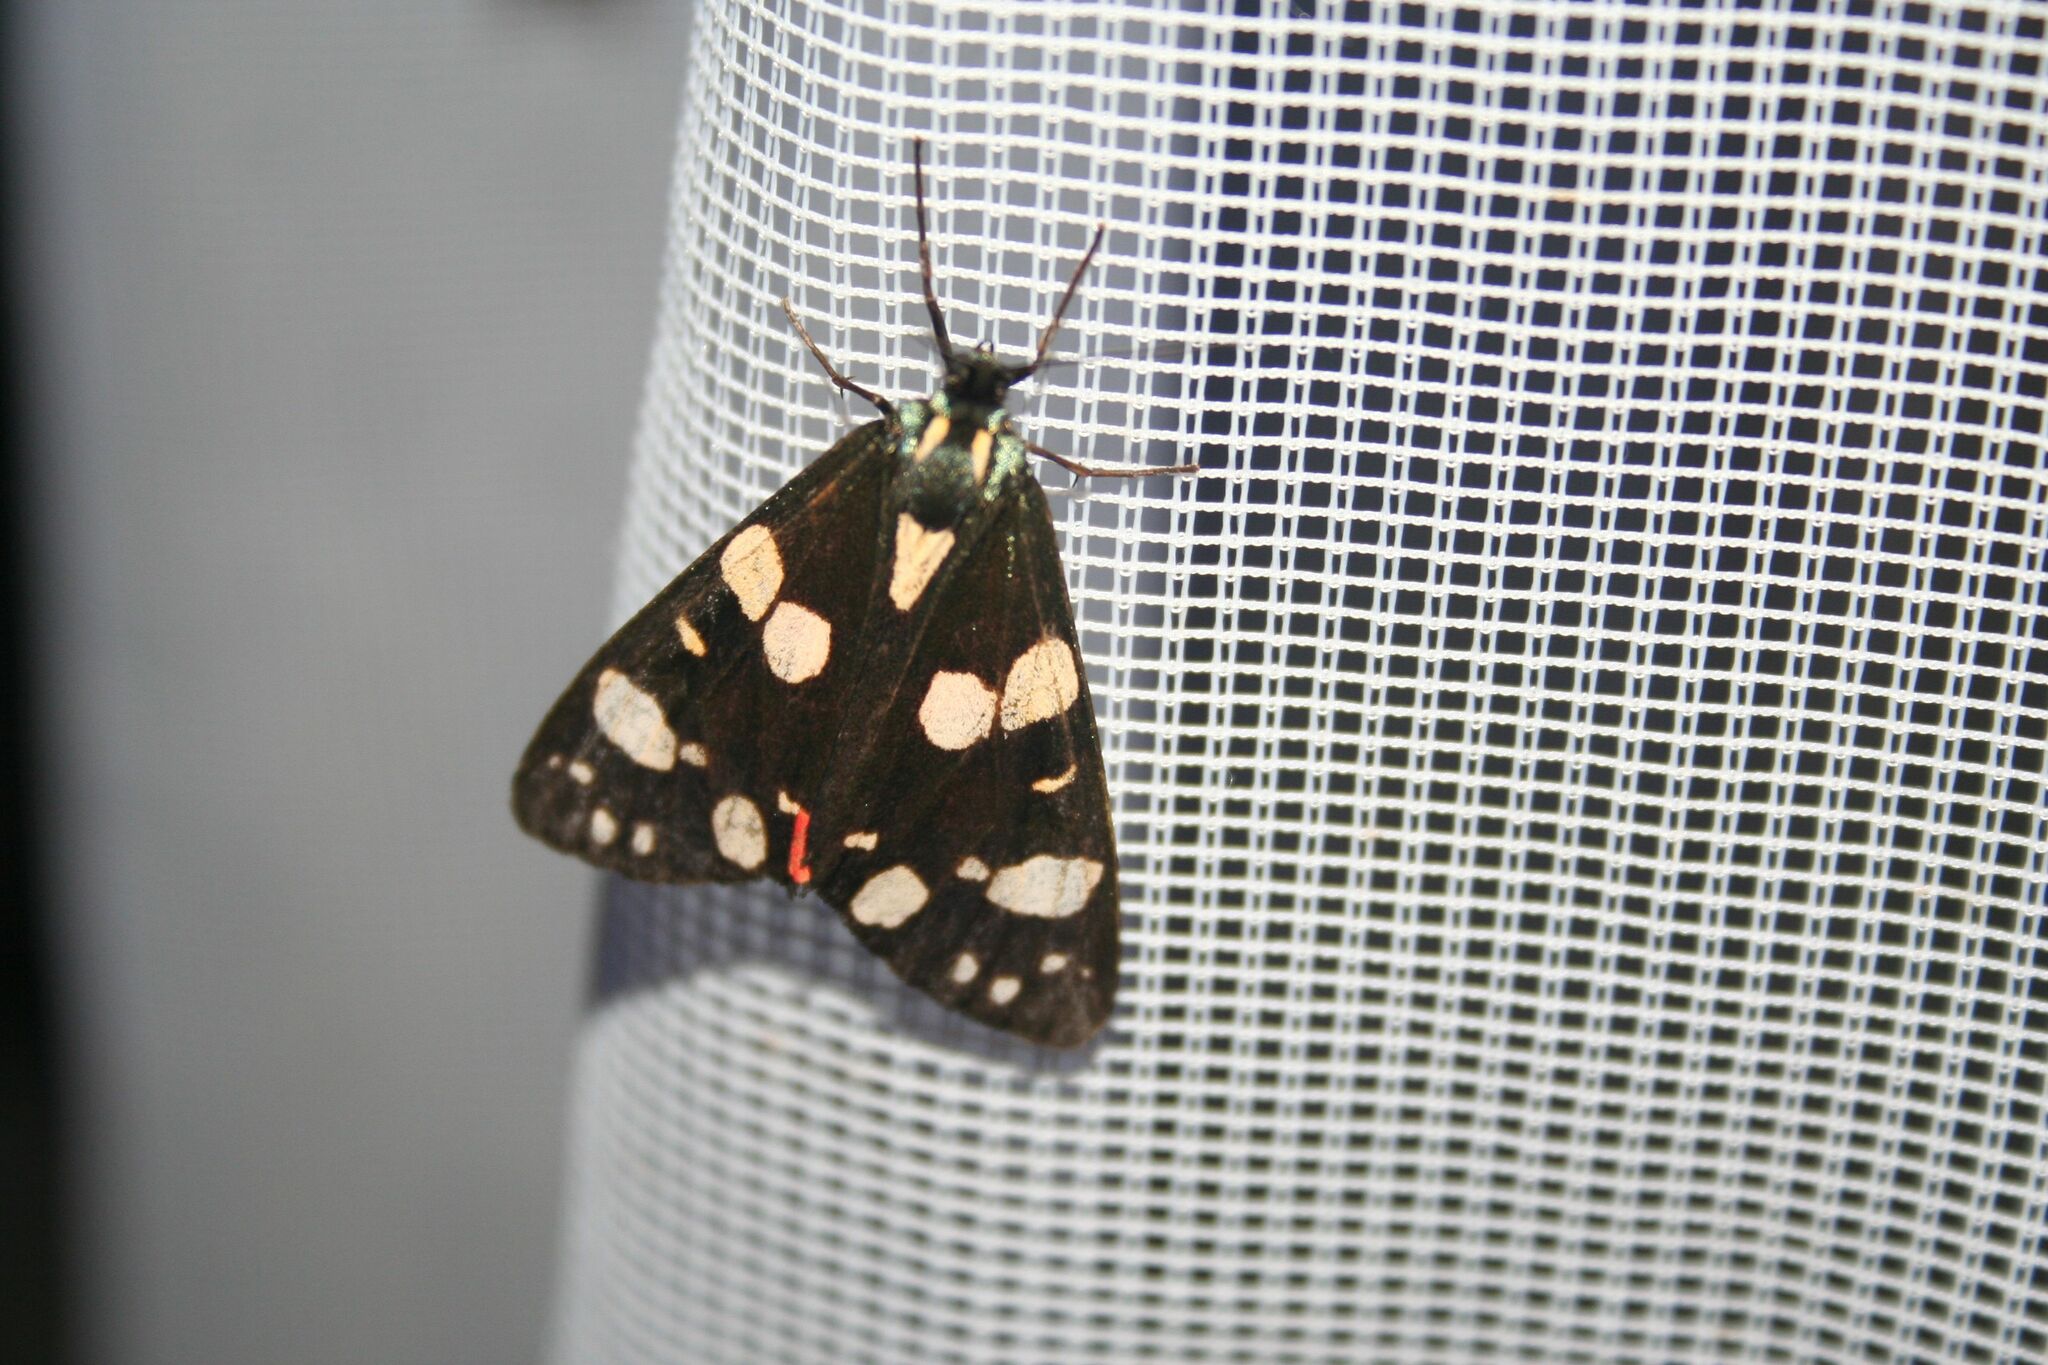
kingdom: Animalia
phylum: Arthropoda
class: Insecta
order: Lepidoptera
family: Erebidae
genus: Callimorpha
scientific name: Callimorpha dominula
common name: Scarlet tiger
